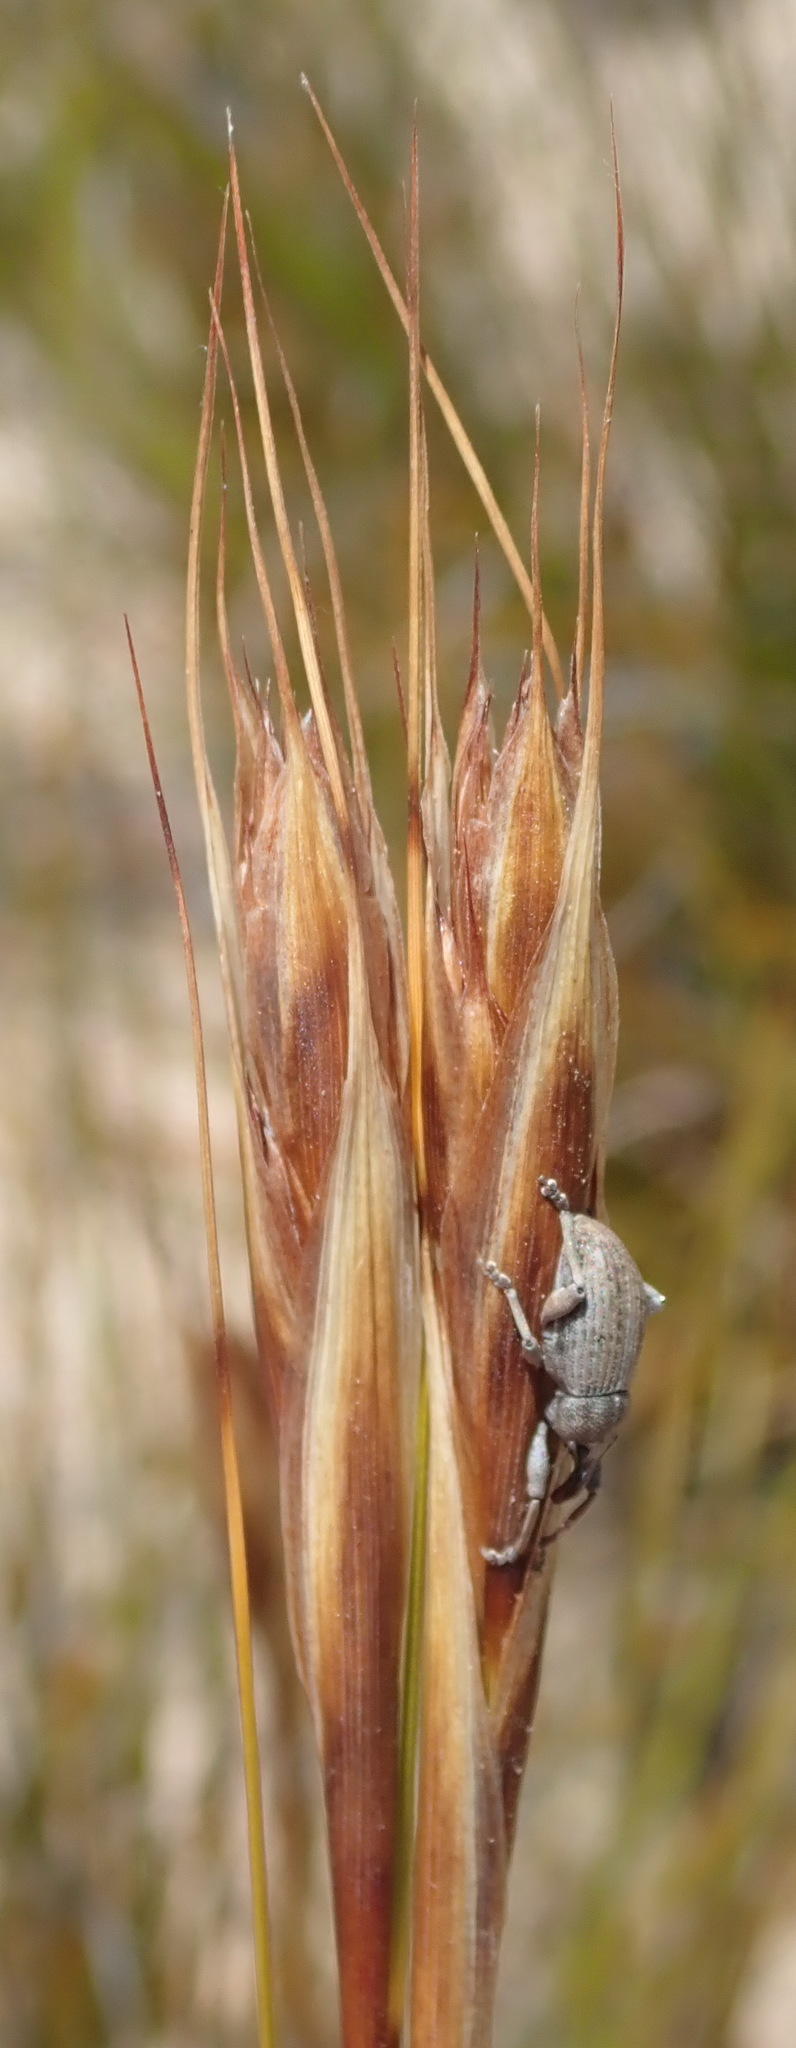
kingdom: Plantae
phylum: Tracheophyta
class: Liliopsida
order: Poales
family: Cyperaceae
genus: Tetraria
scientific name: Tetraria ustulata
